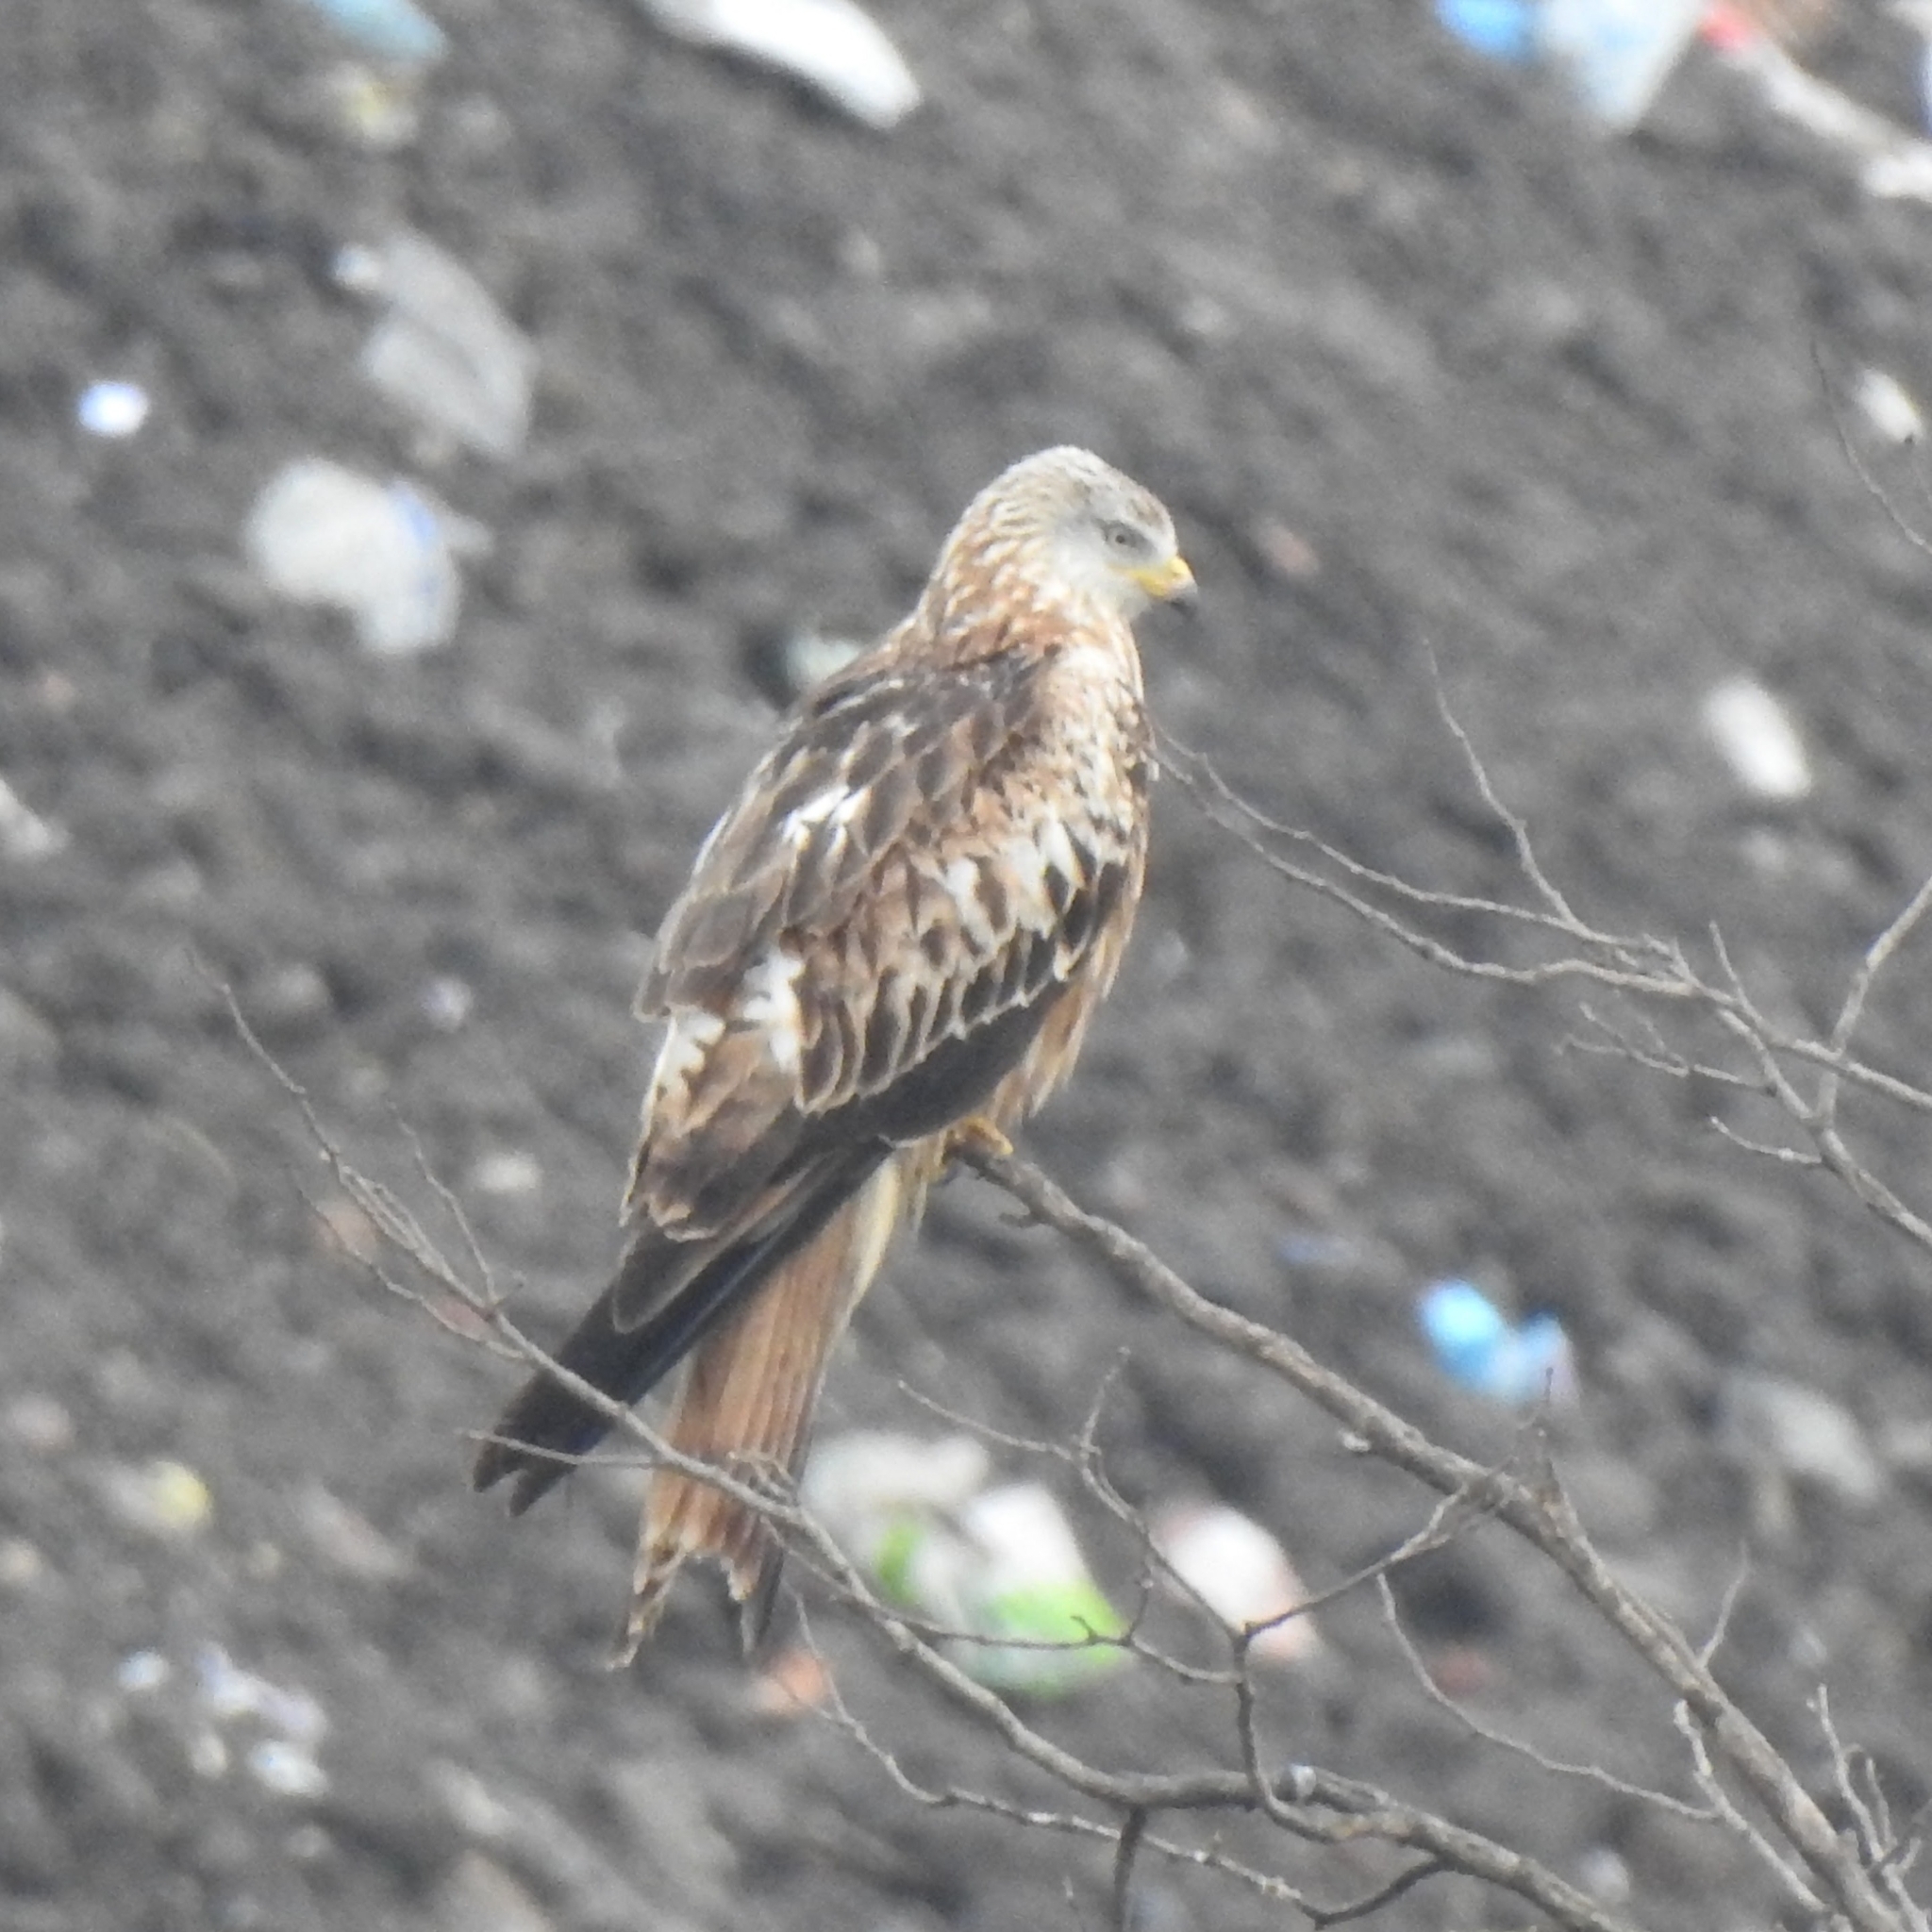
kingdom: Animalia
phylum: Chordata
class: Aves
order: Accipitriformes
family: Accipitridae
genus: Milvus
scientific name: Milvus milvus
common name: Red kite
